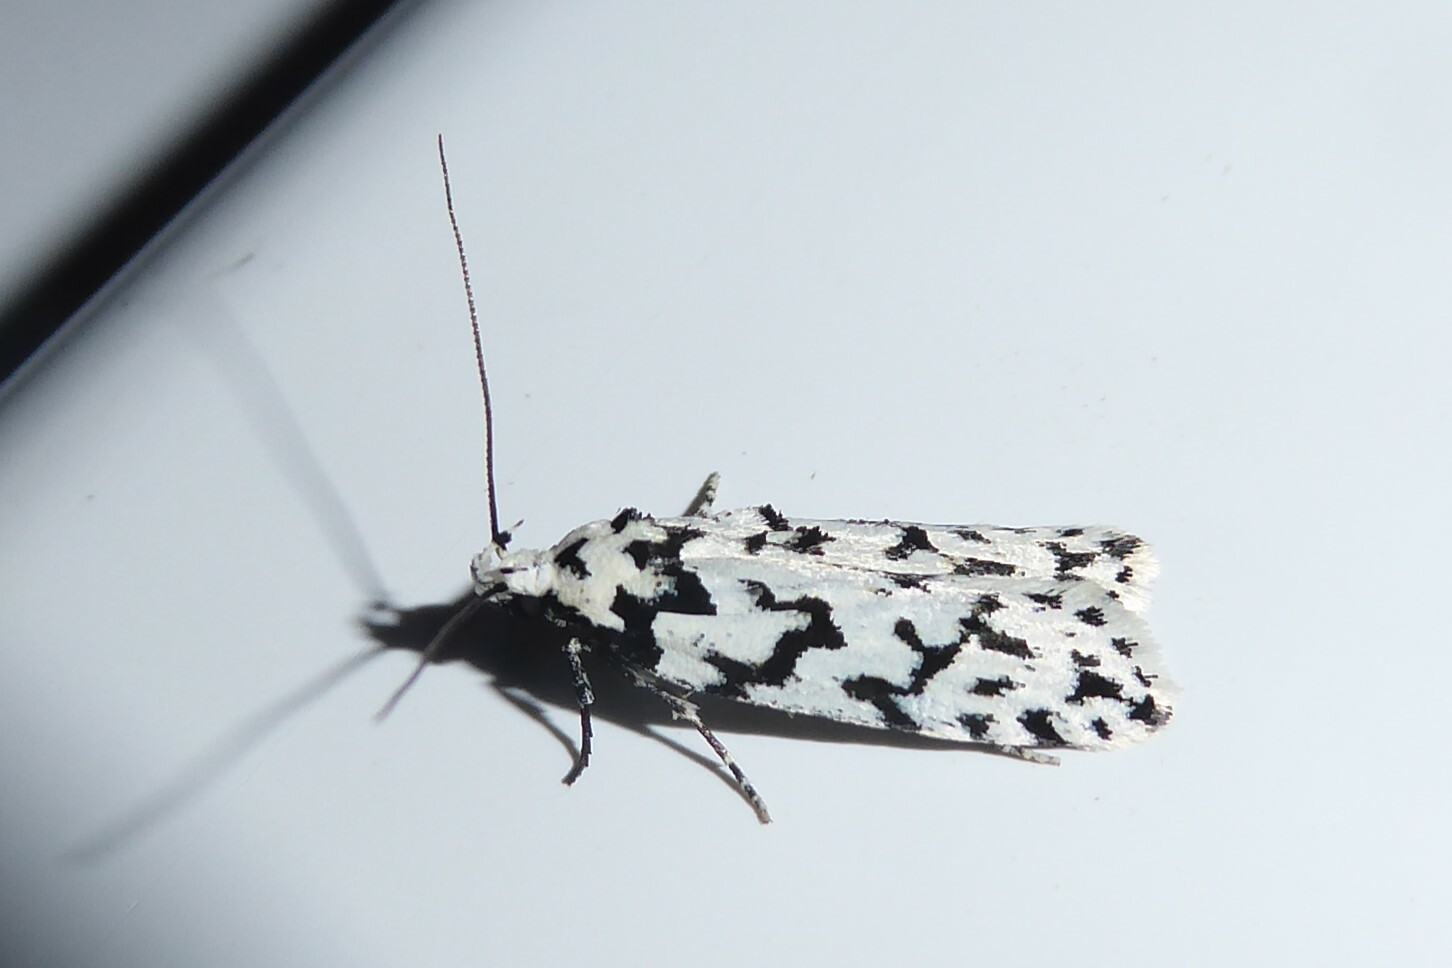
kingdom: Animalia
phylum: Arthropoda
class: Insecta
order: Lepidoptera
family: Oecophoridae
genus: Izatha
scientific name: Izatha katadiktya
